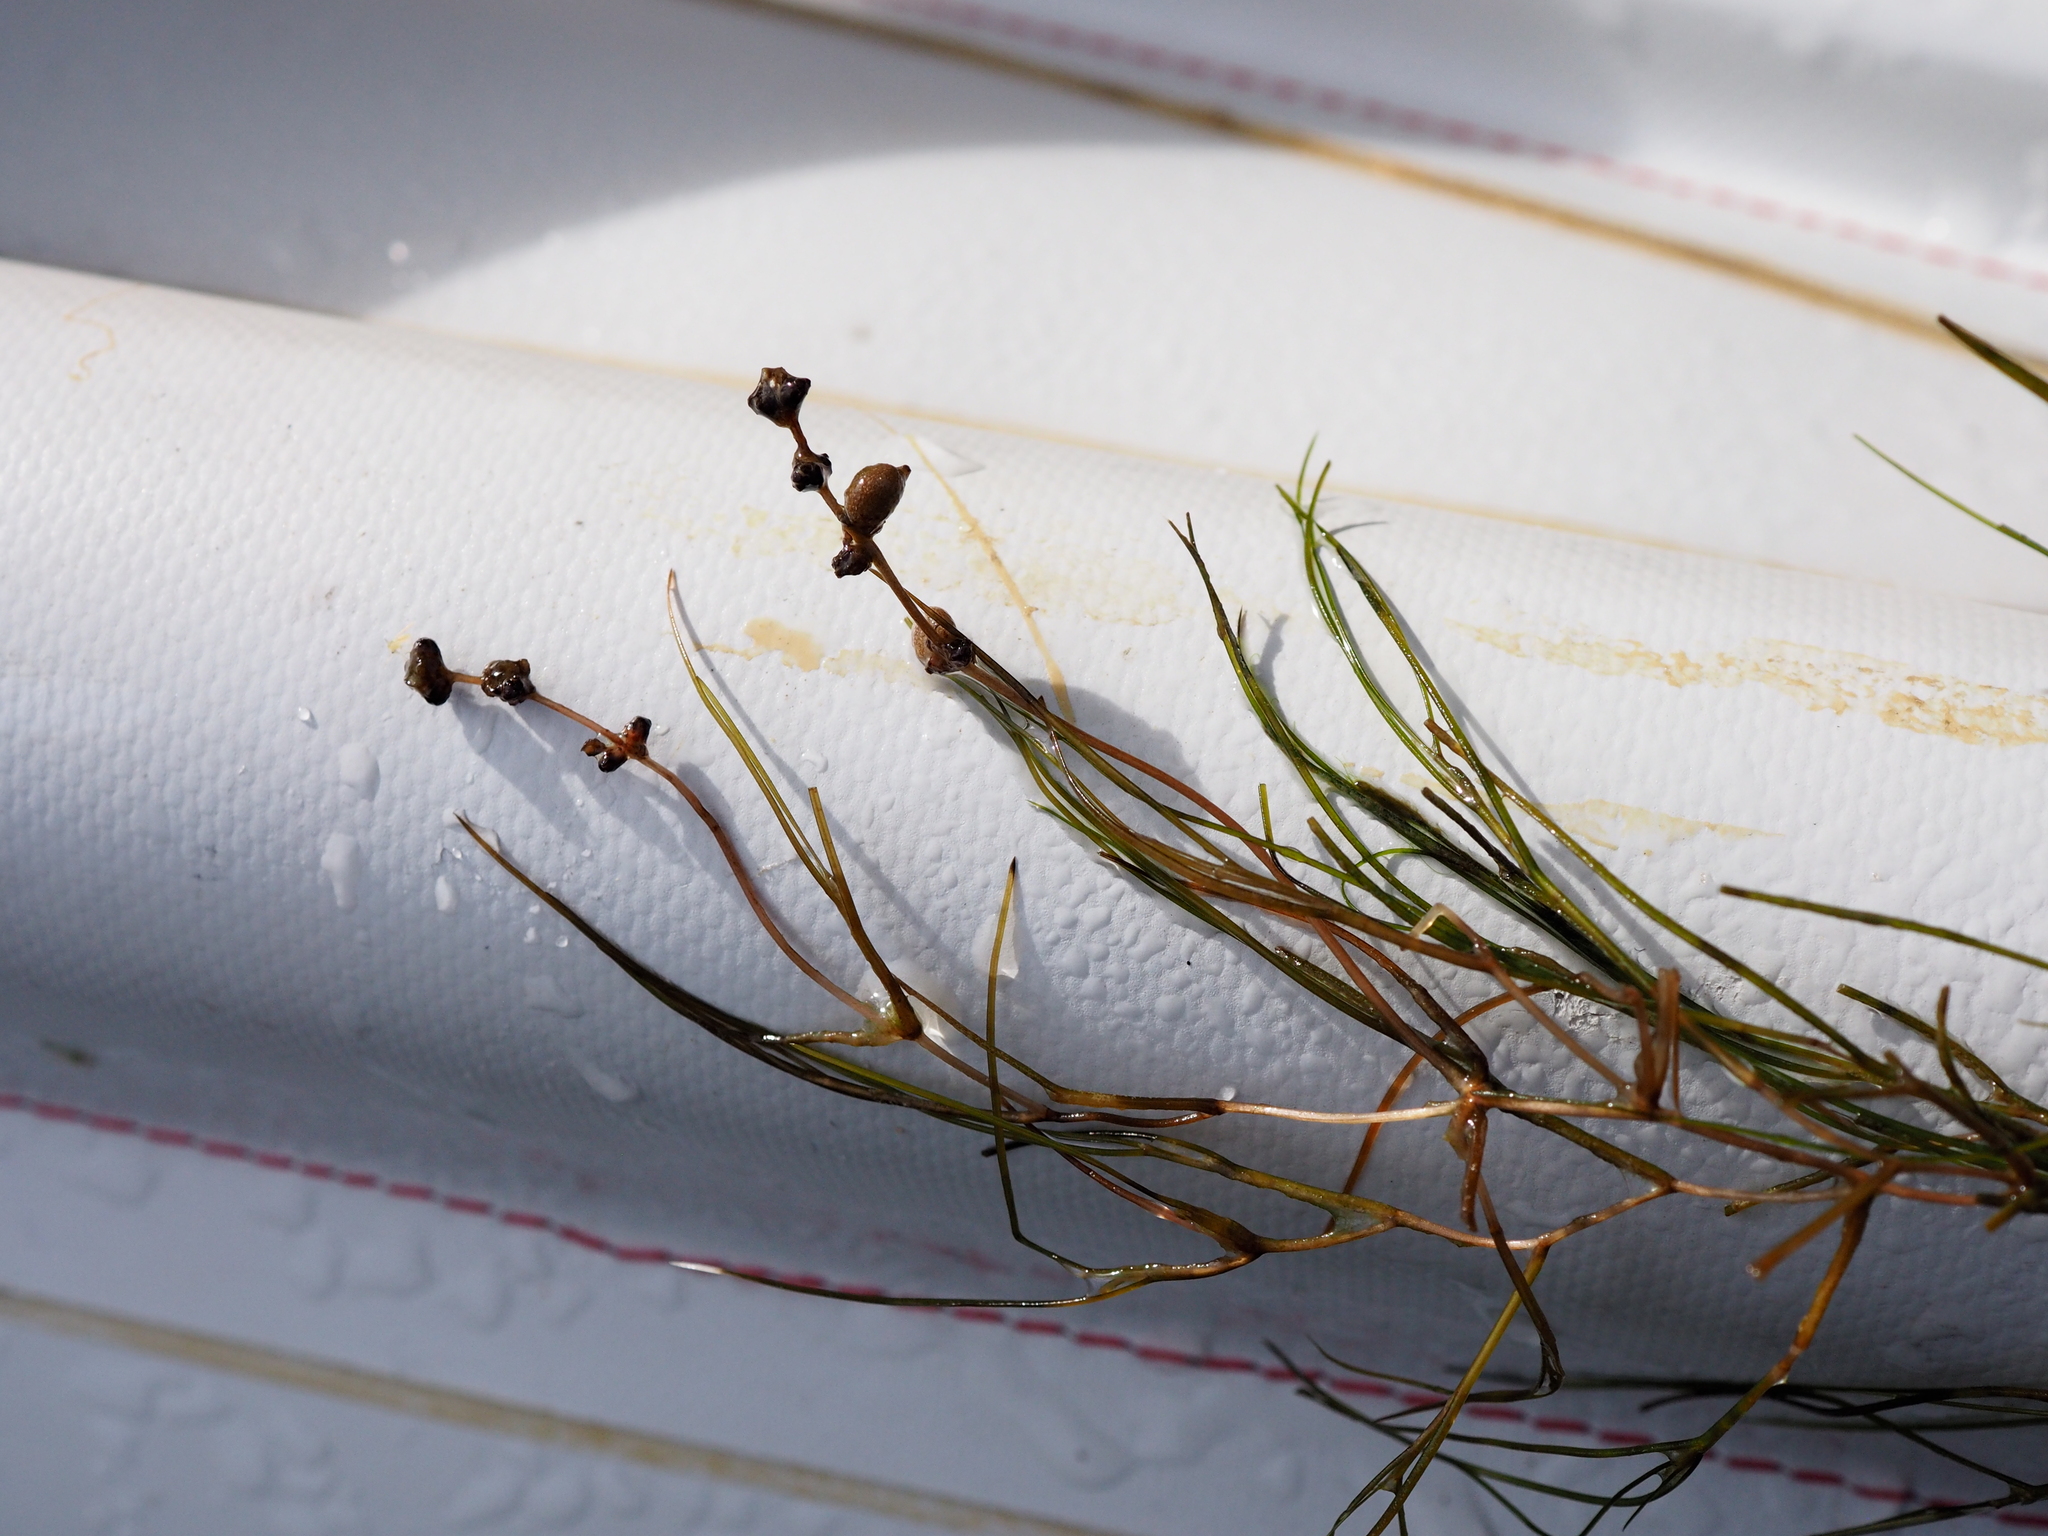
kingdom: Plantae
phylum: Tracheophyta
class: Liliopsida
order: Alismatales
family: Potamogetonaceae
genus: Stuckenia
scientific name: Stuckenia pectinata
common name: Sago pondweed
